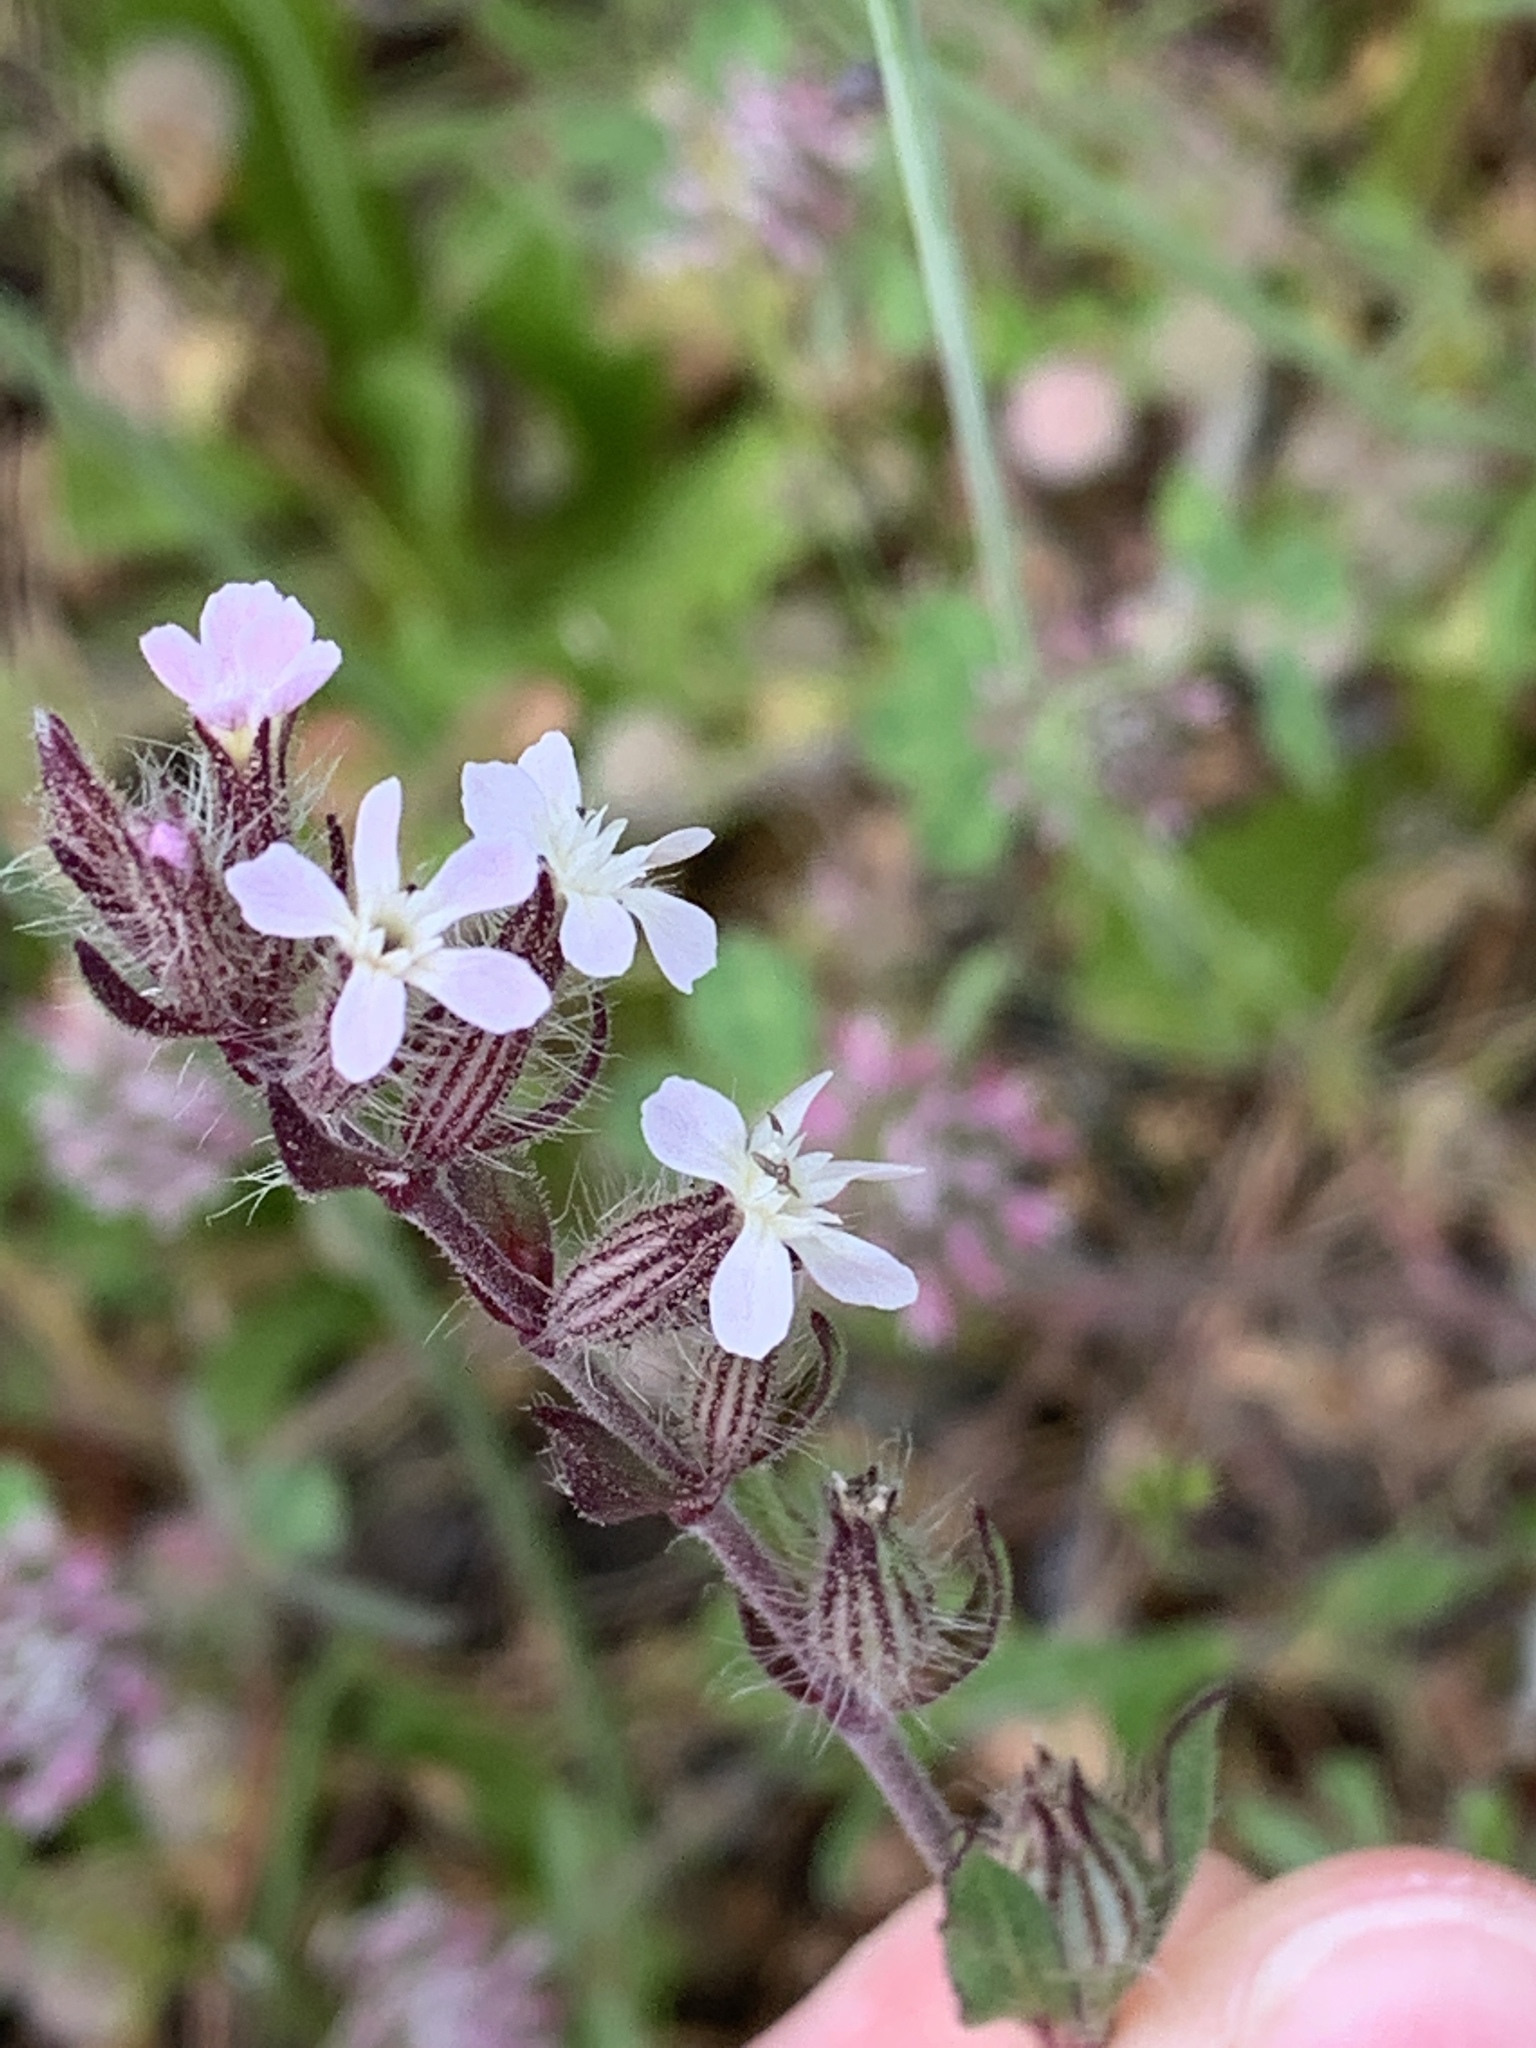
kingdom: Plantae
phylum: Tracheophyta
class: Magnoliopsida
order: Caryophyllales
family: Caryophyllaceae
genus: Silene
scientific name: Silene gallica
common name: Small-flowered catchfly
